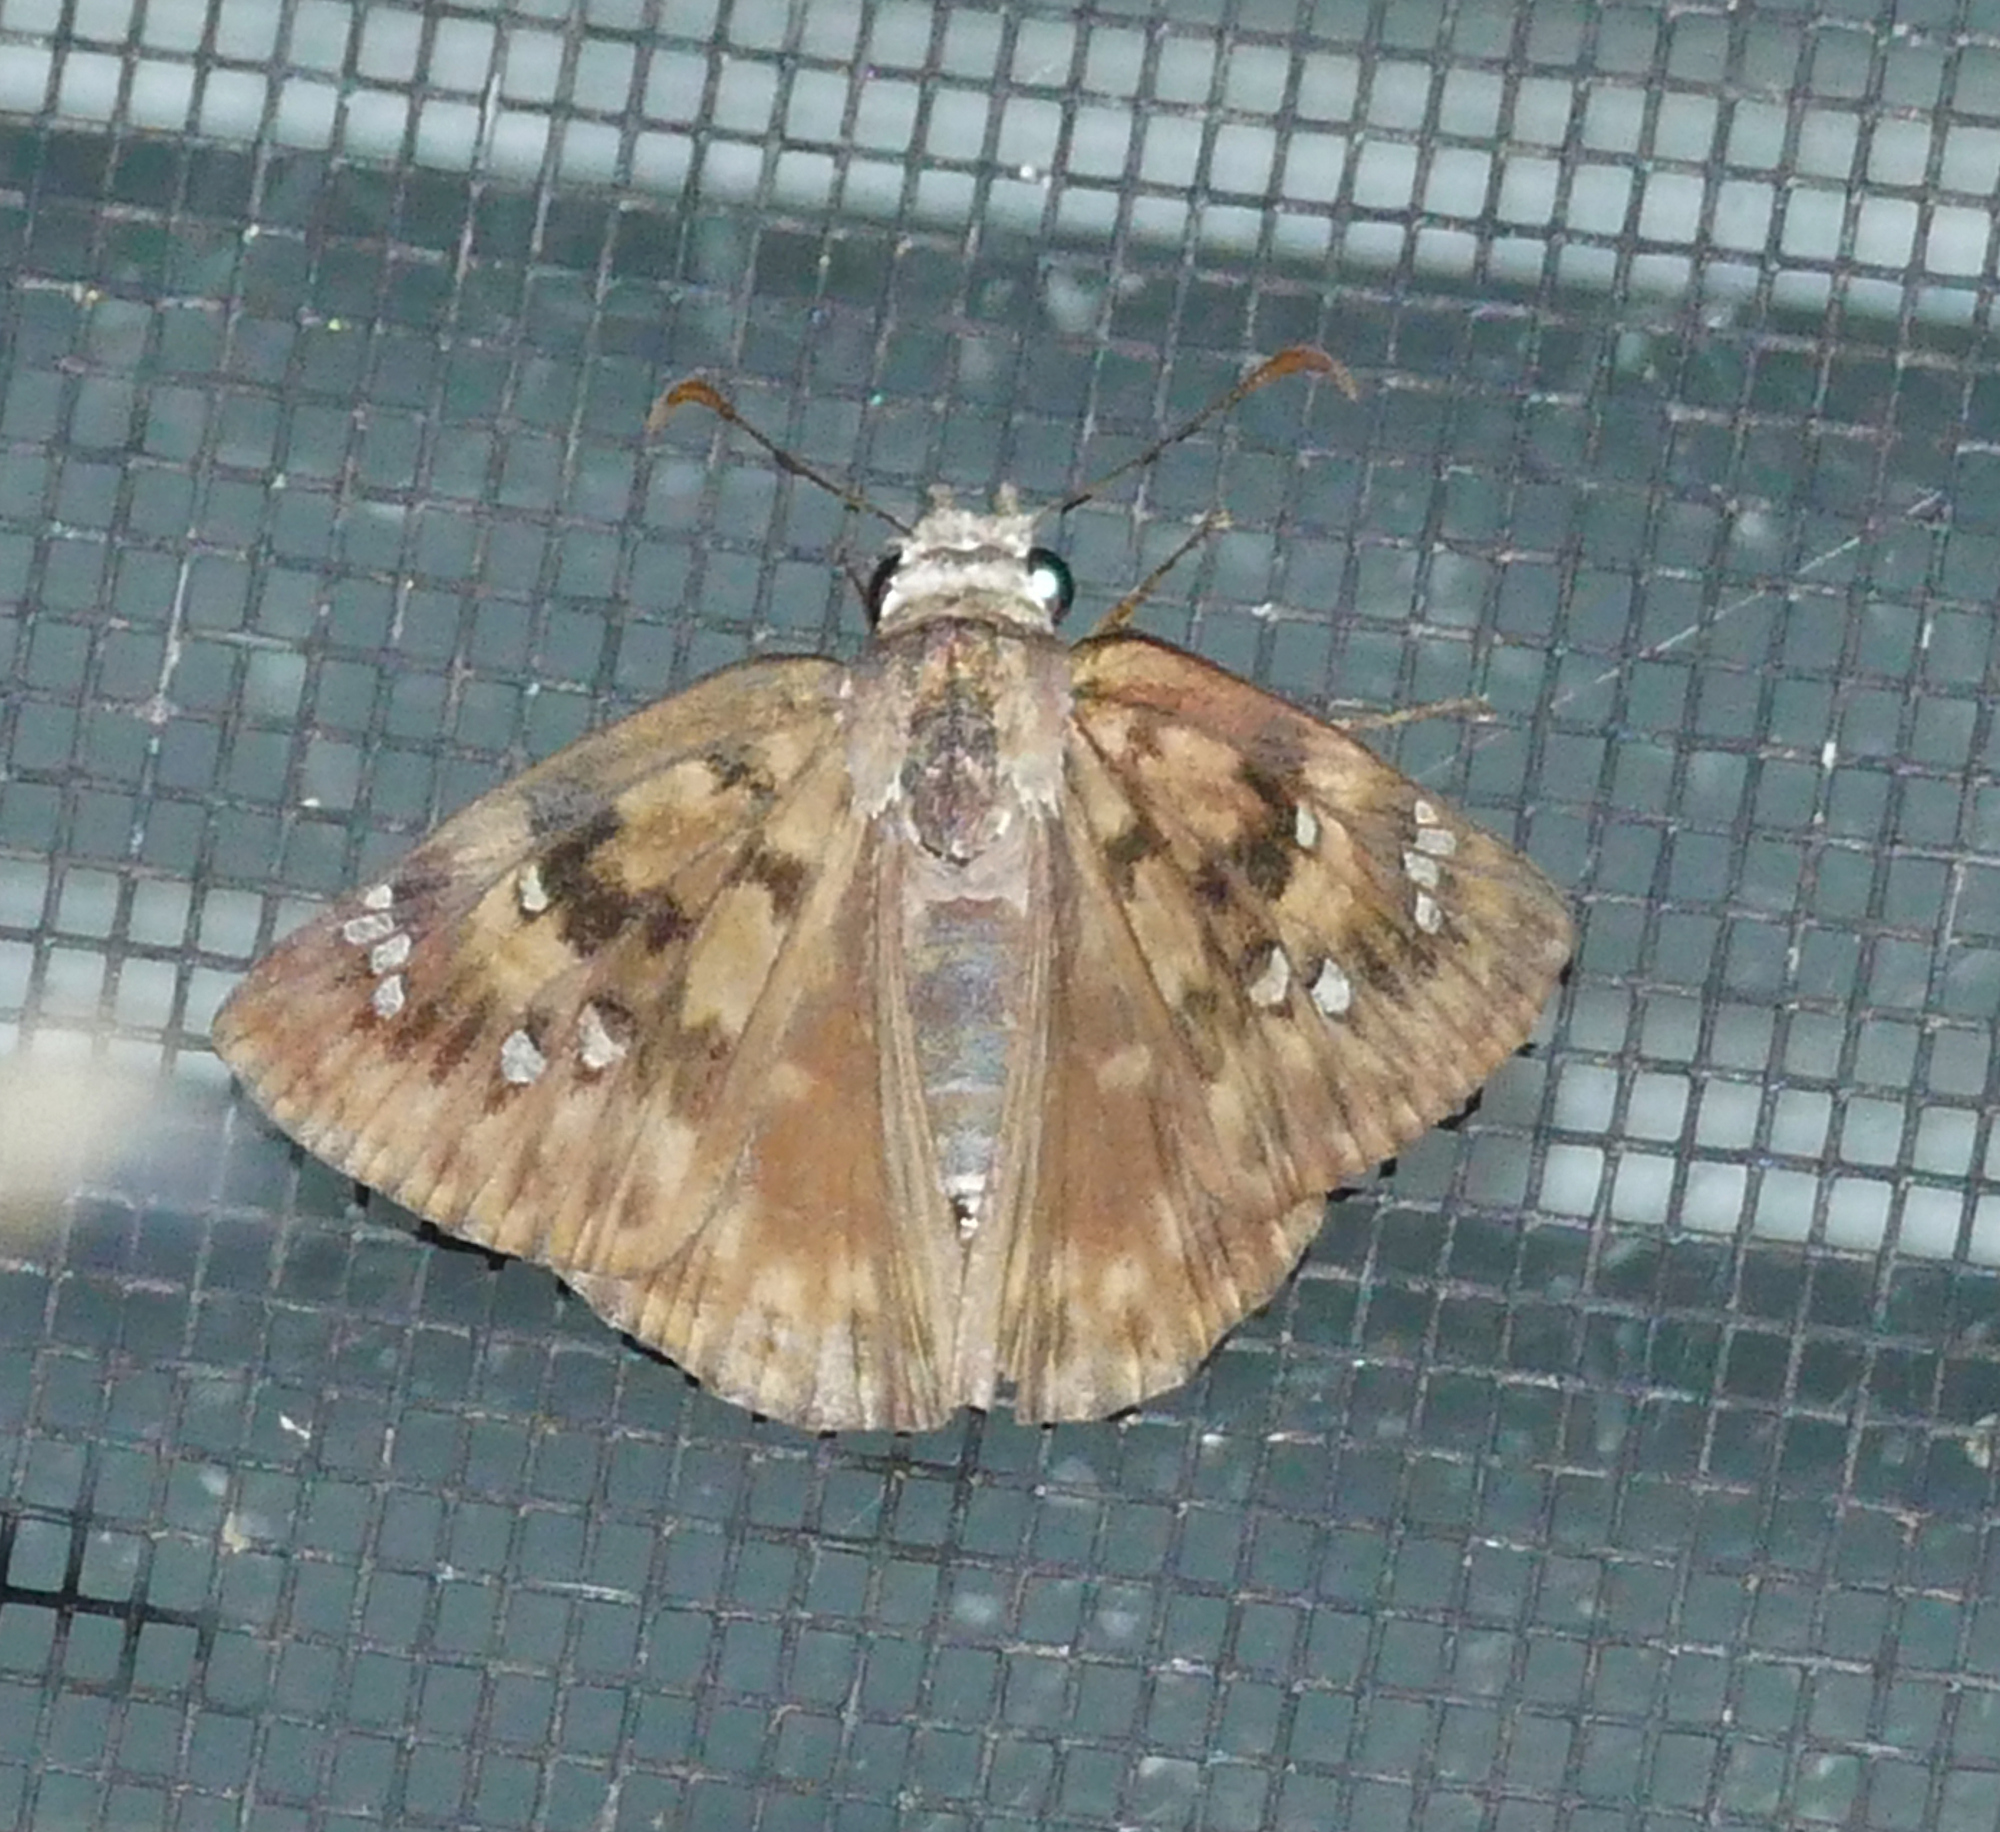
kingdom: Animalia
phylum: Arthropoda
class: Insecta
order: Lepidoptera
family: Hesperiidae
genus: Erynnis
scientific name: Erynnis horatius
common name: Horace's duskywing
